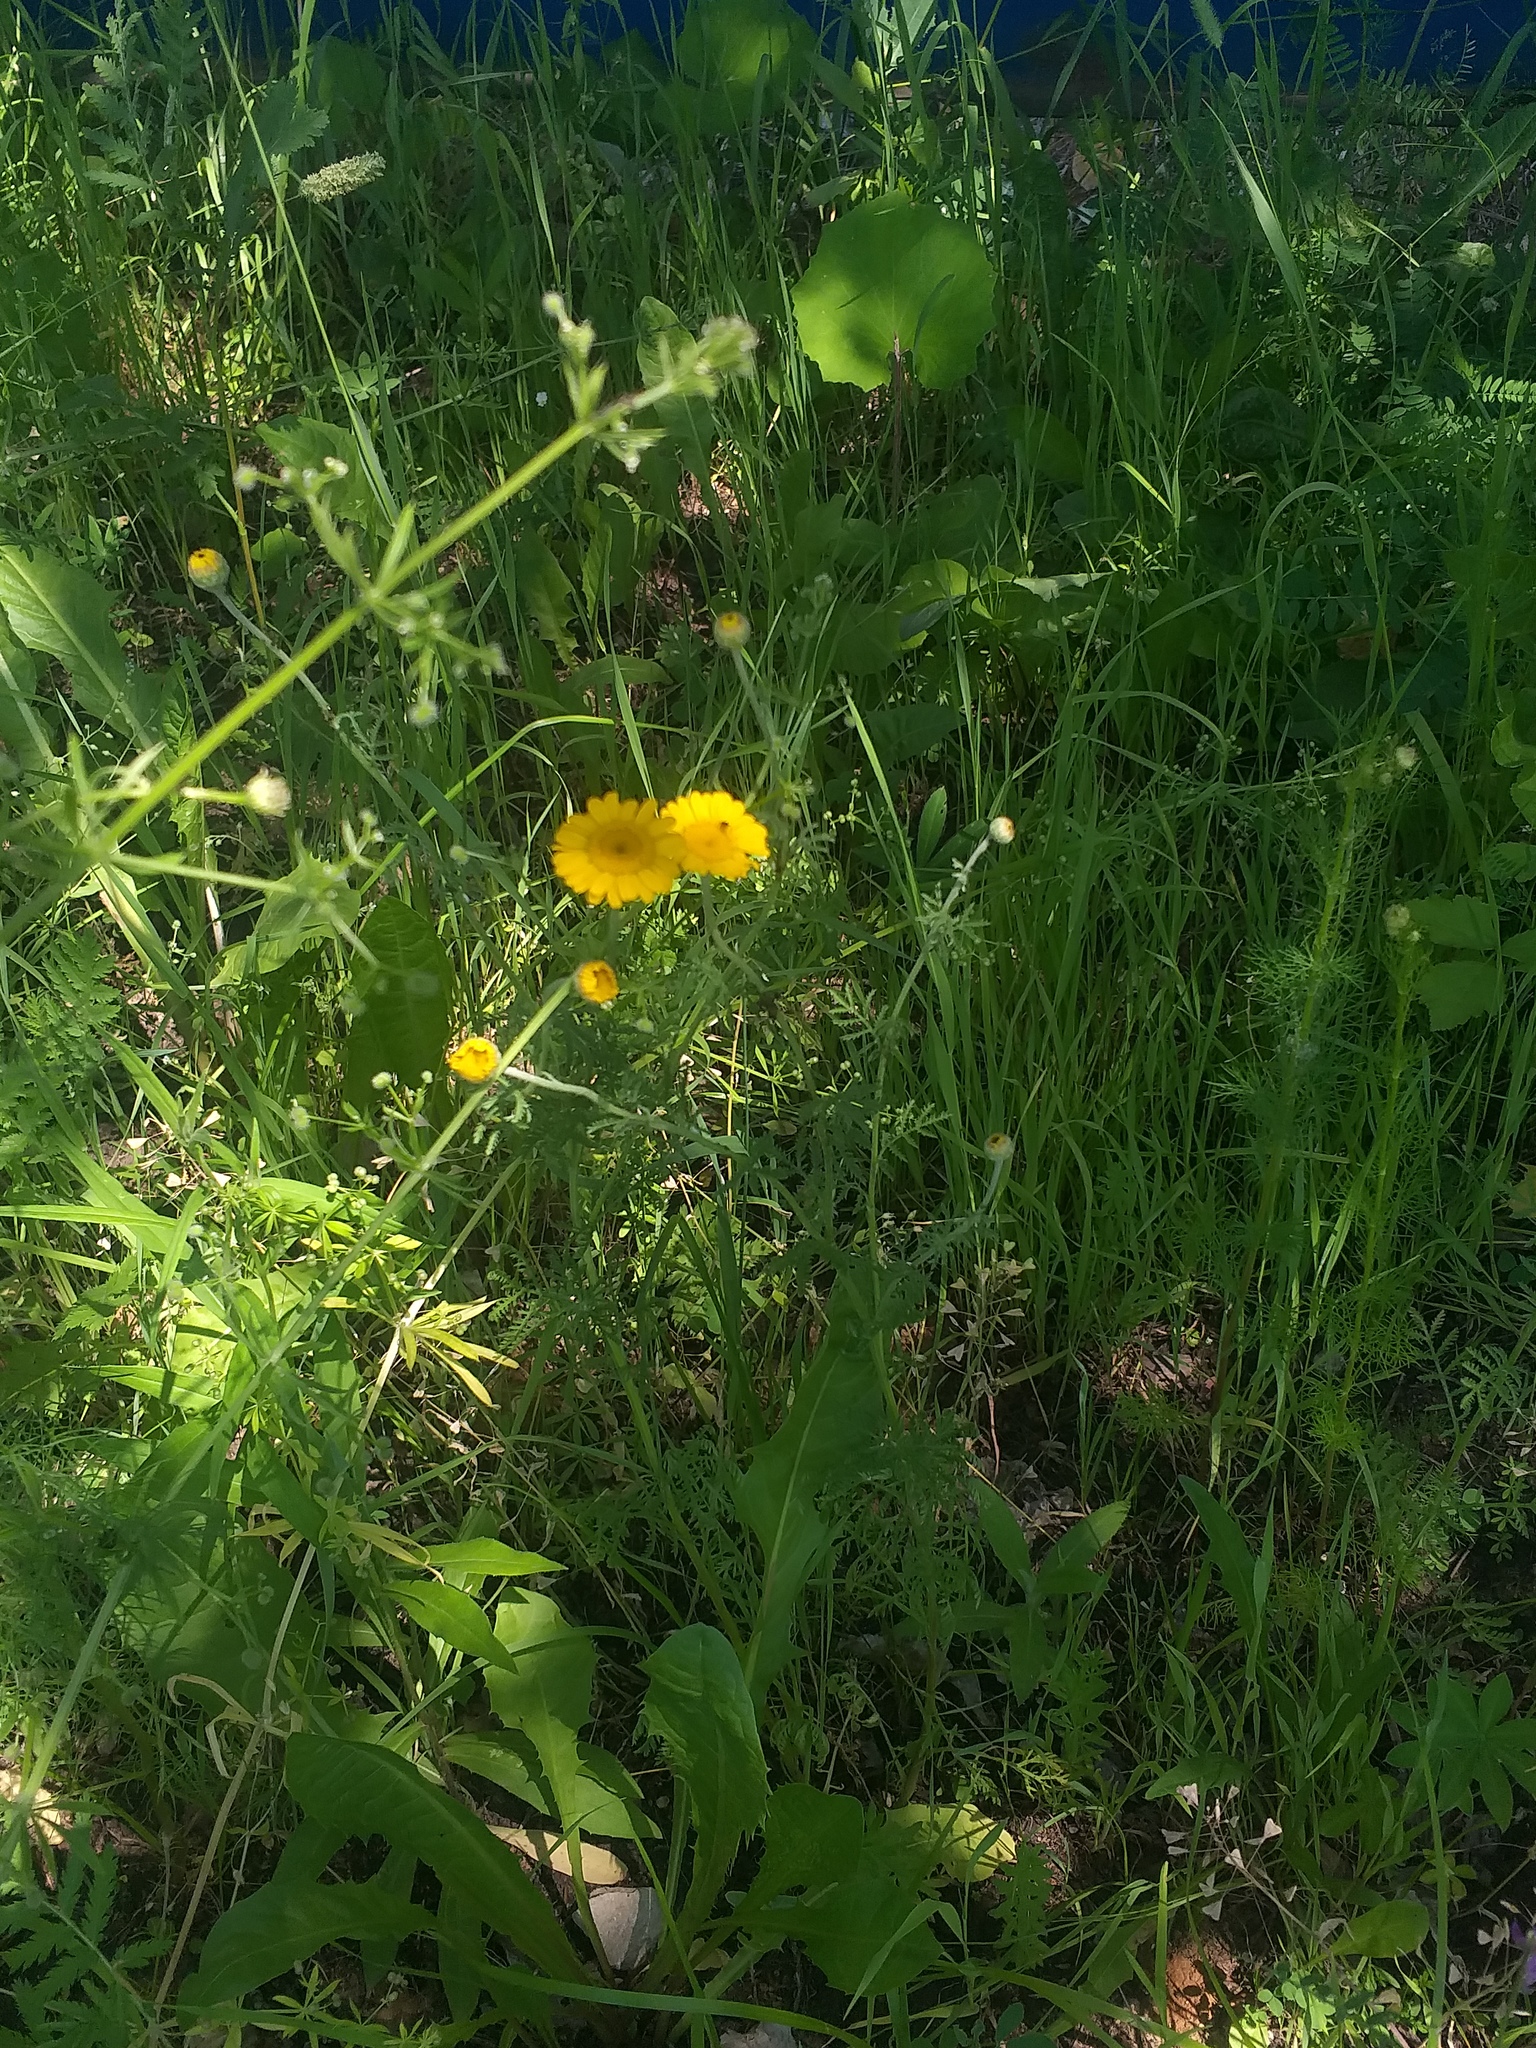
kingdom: Plantae
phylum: Tracheophyta
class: Magnoliopsida
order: Asterales
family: Asteraceae
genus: Cota
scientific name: Cota tinctoria
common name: Golden chamomile
